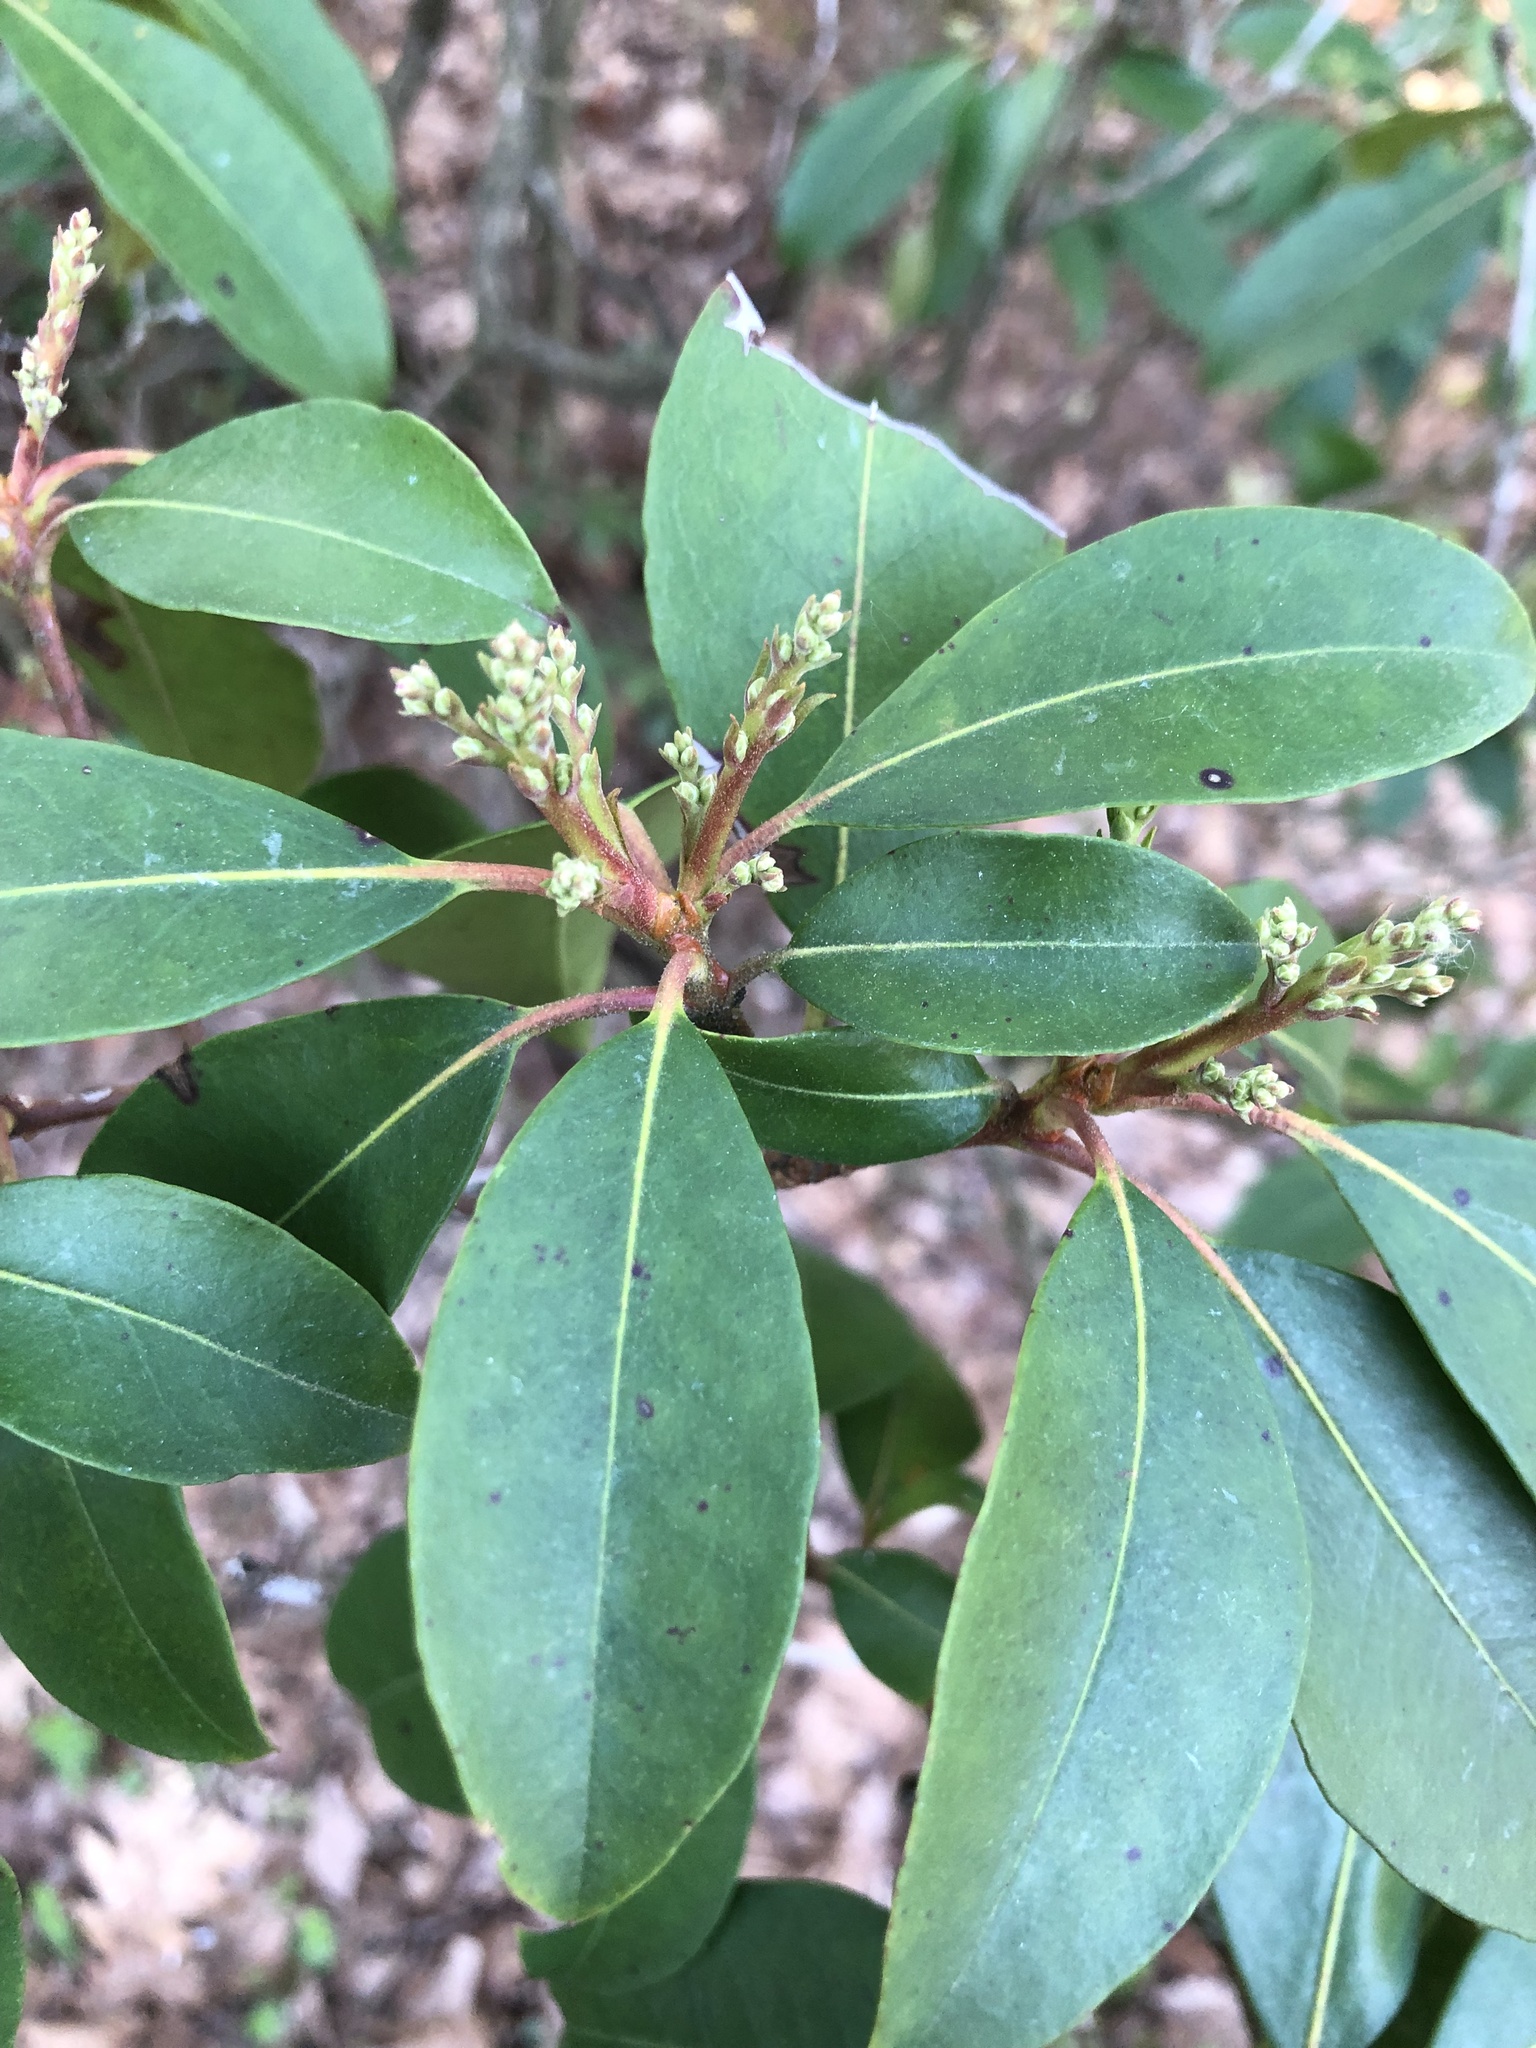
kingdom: Plantae
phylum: Tracheophyta
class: Magnoliopsida
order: Ericales
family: Ericaceae
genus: Kalmia
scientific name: Kalmia latifolia
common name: Mountain-laurel
